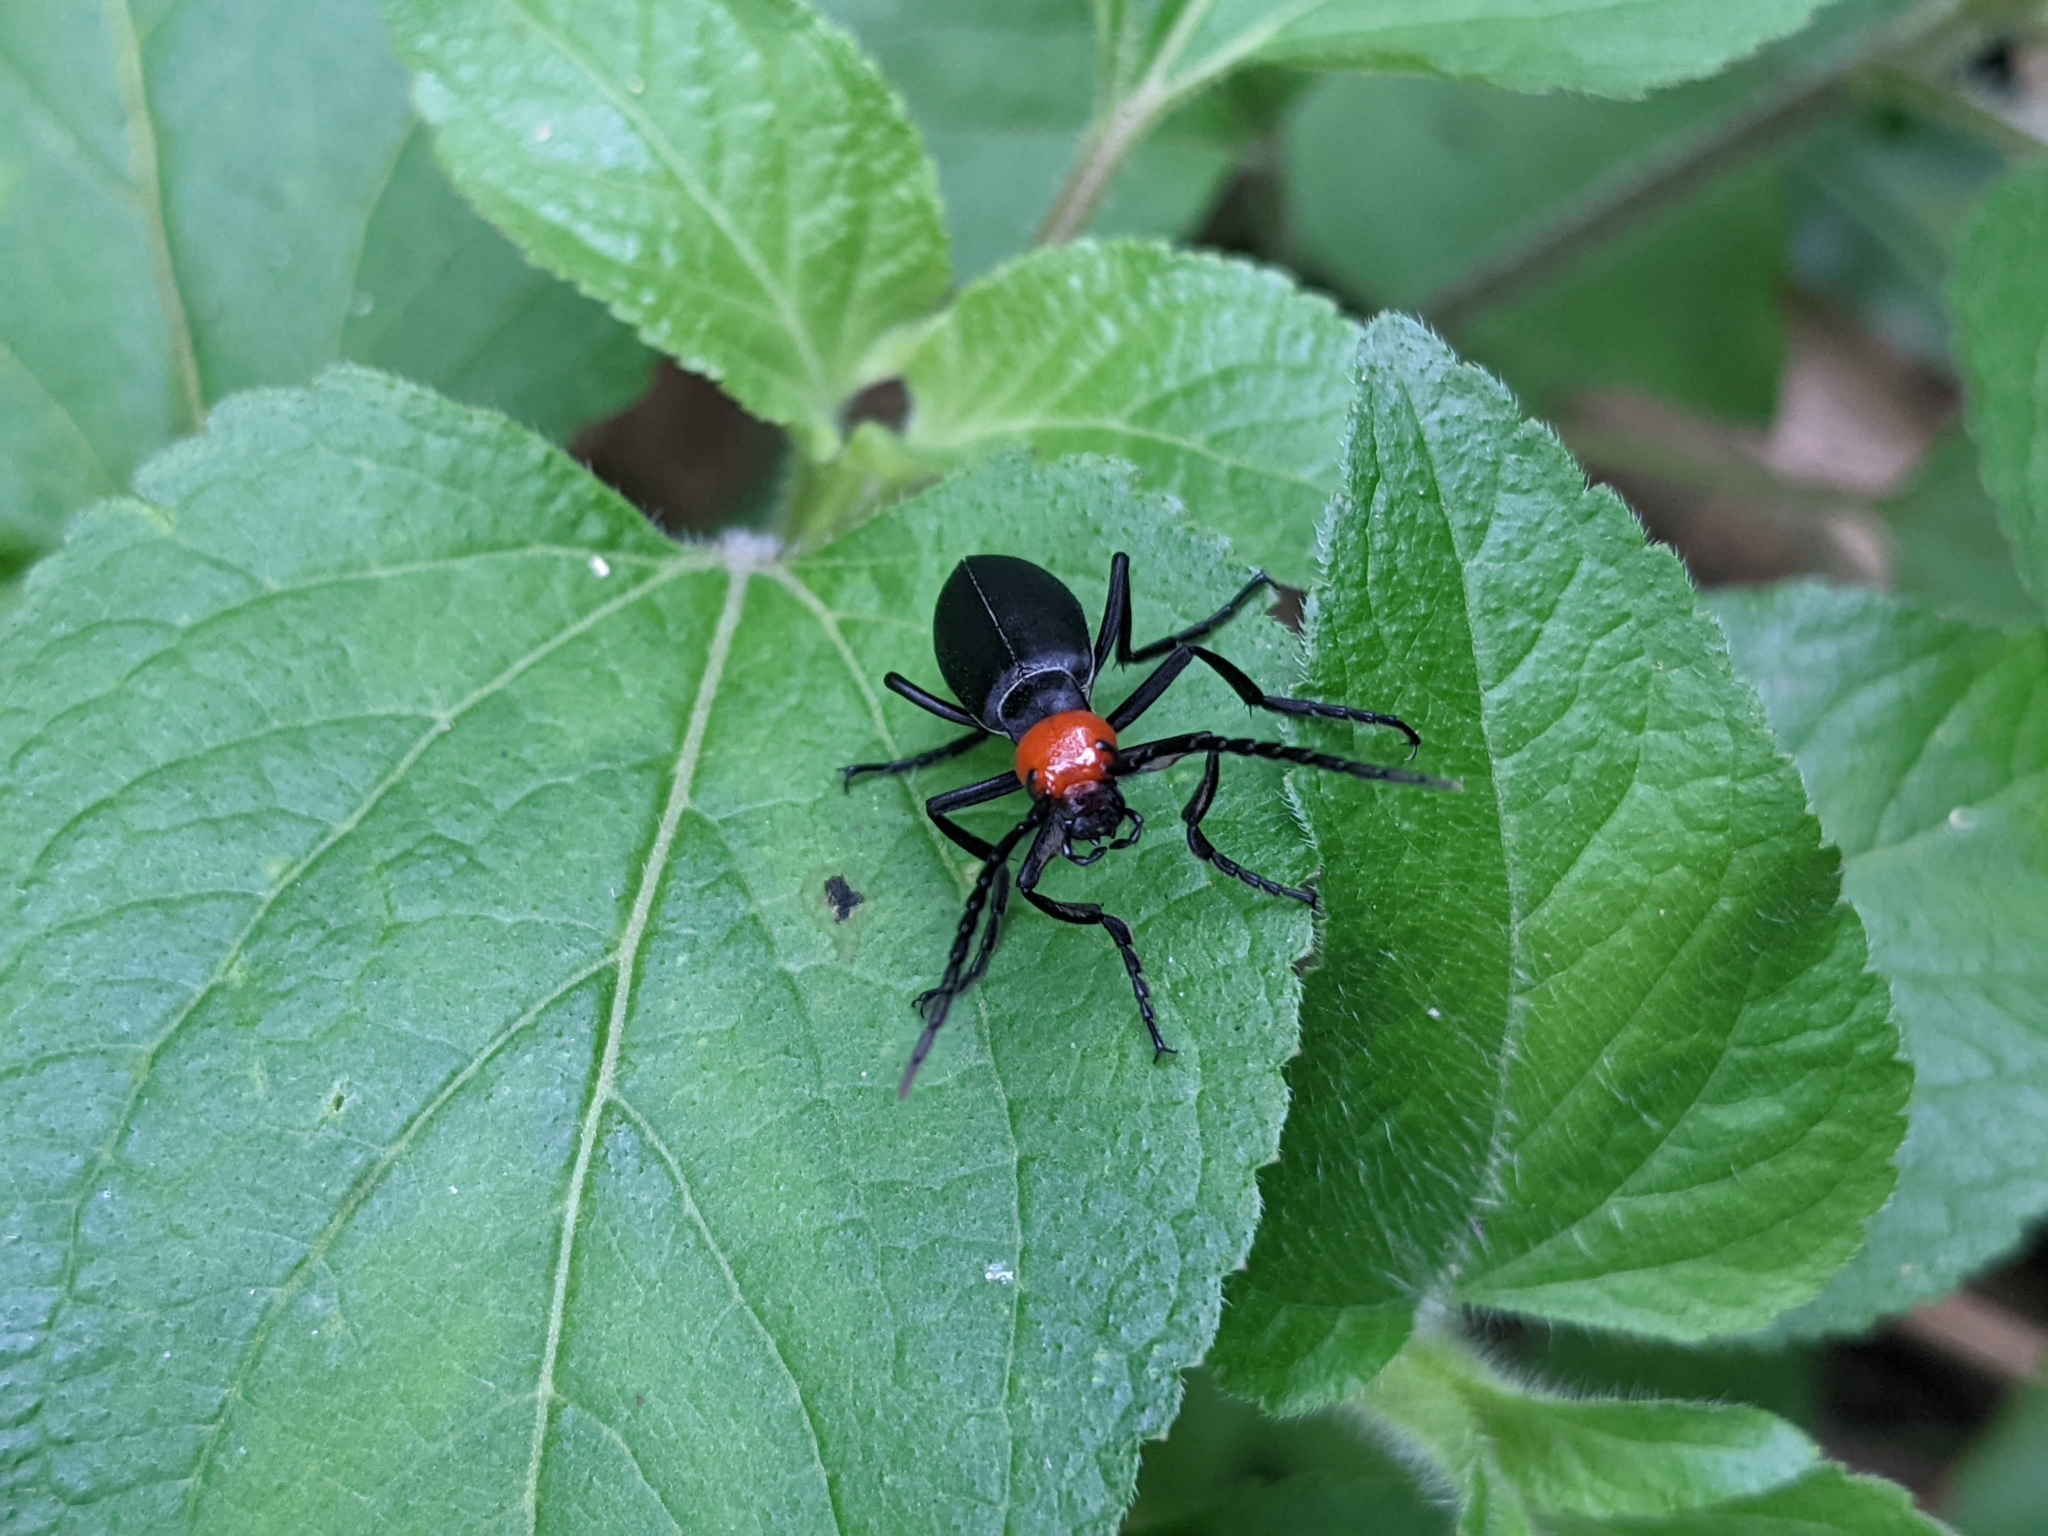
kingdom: Animalia
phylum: Arthropoda
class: Insecta
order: Coleoptera
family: Meloidae
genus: Epicauta
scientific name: Epicauta hirticornis
